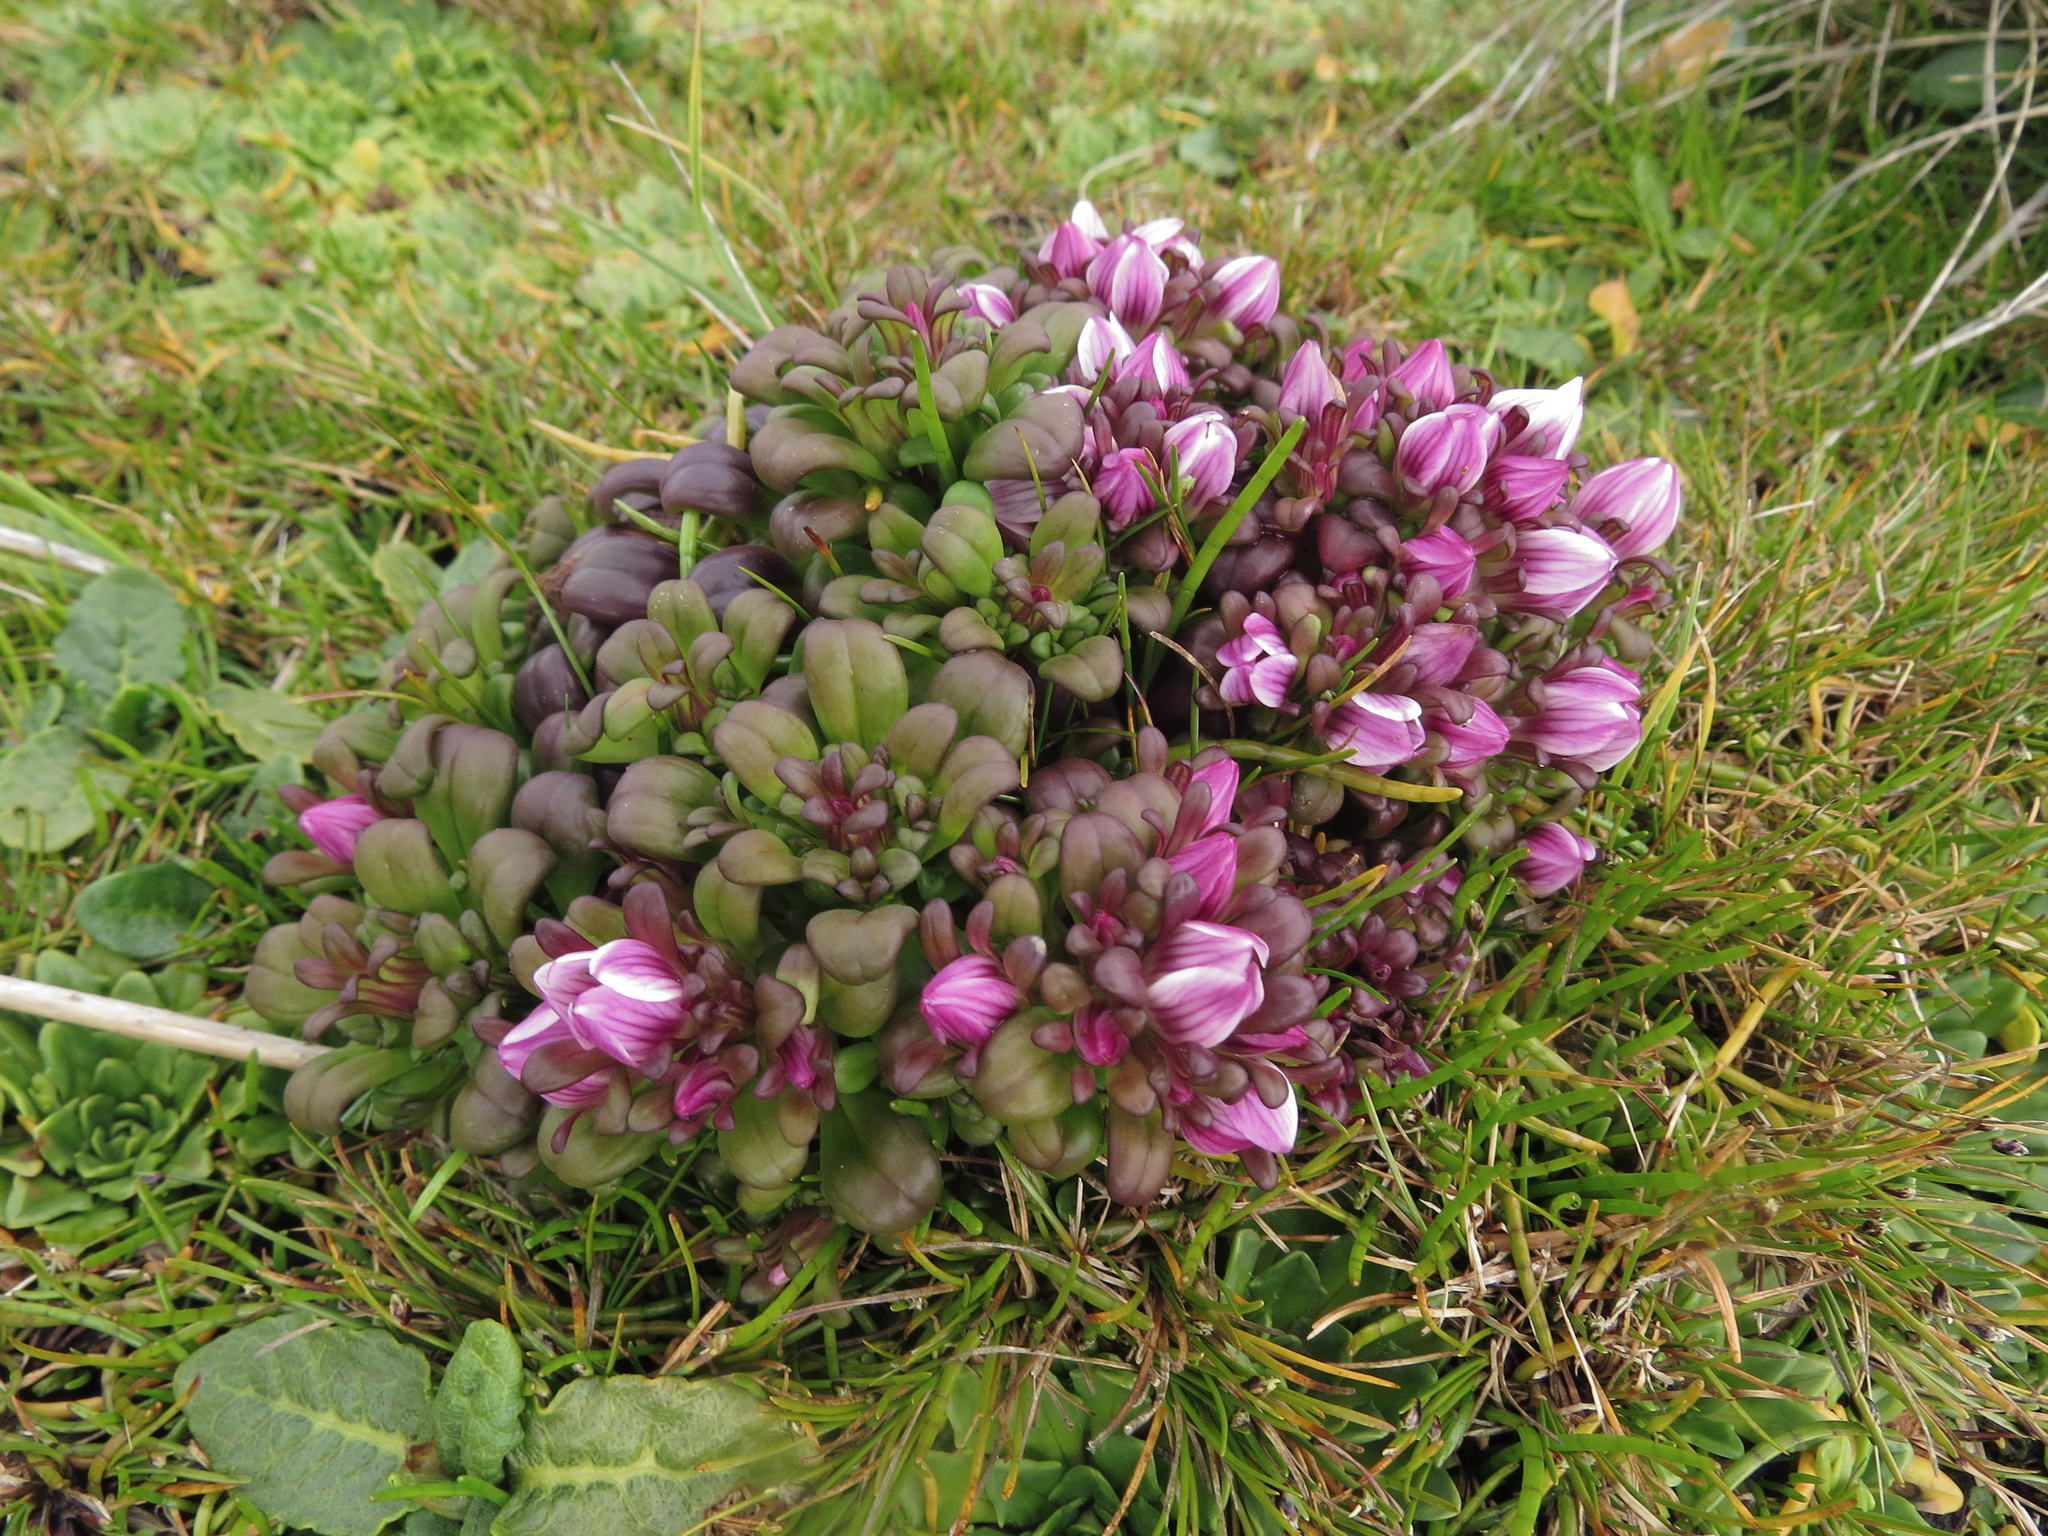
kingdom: Plantae
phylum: Tracheophyta
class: Magnoliopsida
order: Gentianales
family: Gentianaceae
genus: Gentianella
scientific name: Gentianella cerina
